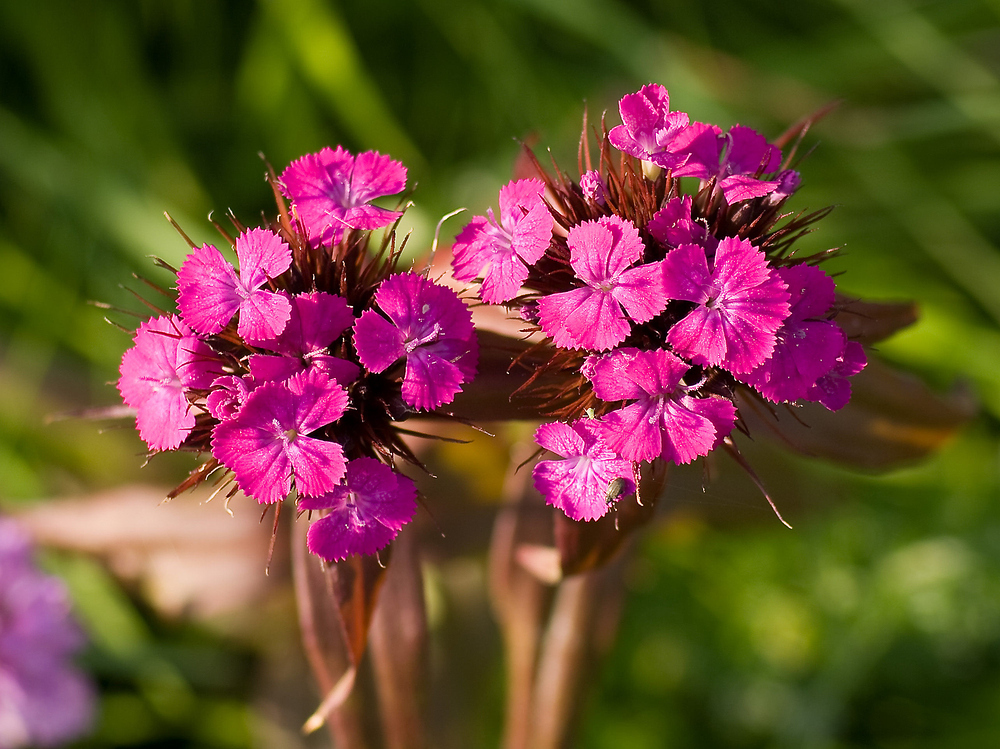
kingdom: Plantae
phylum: Tracheophyta
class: Magnoliopsida
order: Caryophyllales
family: Caryophyllaceae
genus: Dianthus
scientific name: Dianthus barbatus
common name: Sweet-william
